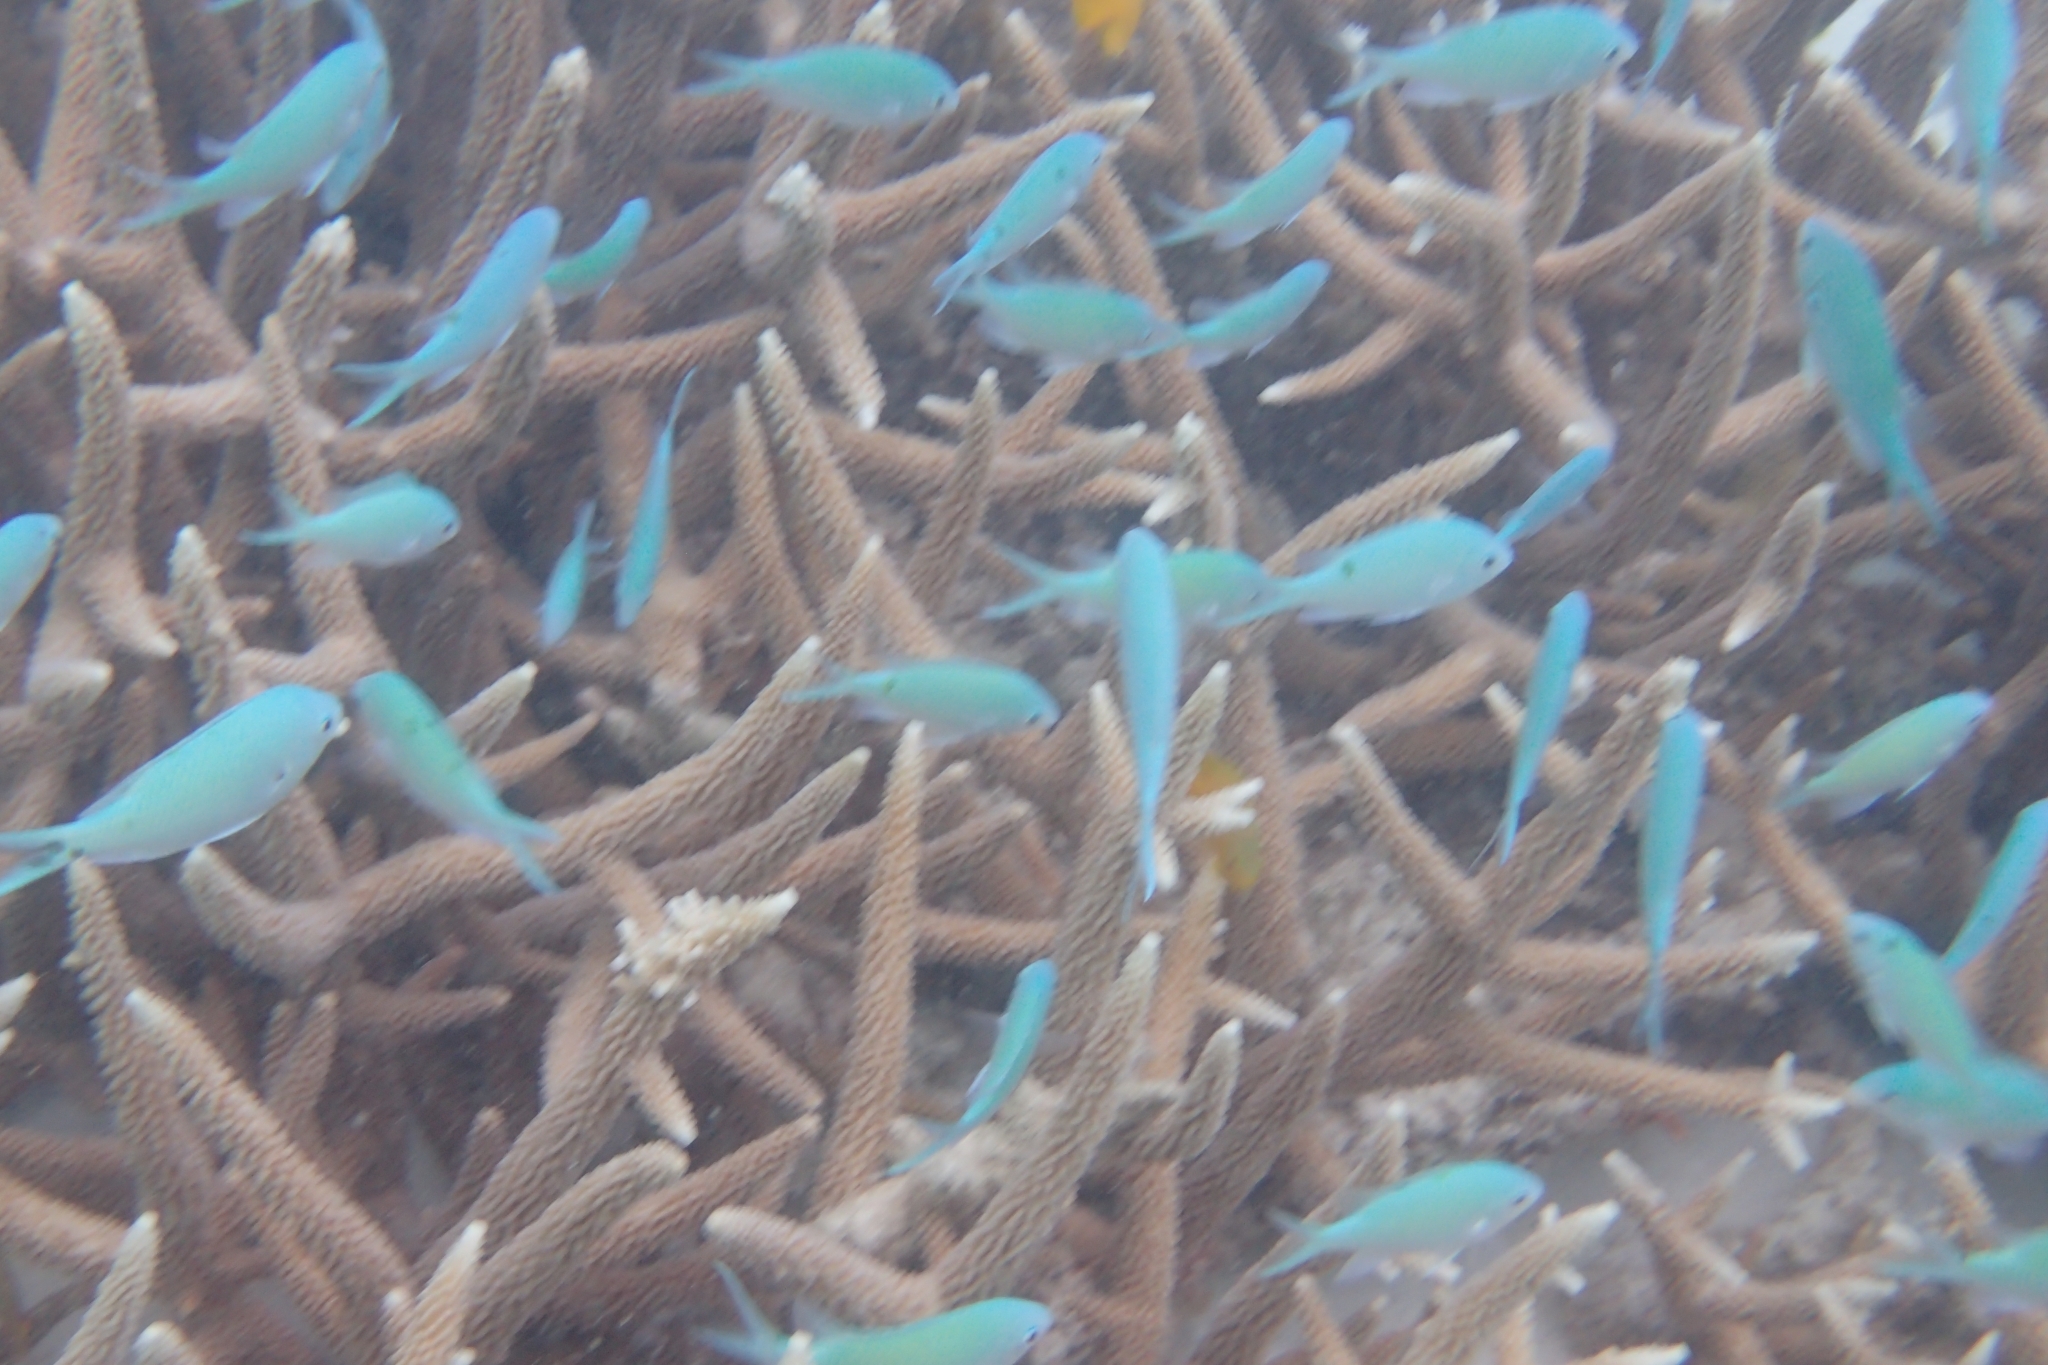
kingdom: Animalia
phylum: Chordata
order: Perciformes
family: Pomacentridae
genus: Chromis
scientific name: Chromis viridis
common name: Blue-green chromis
